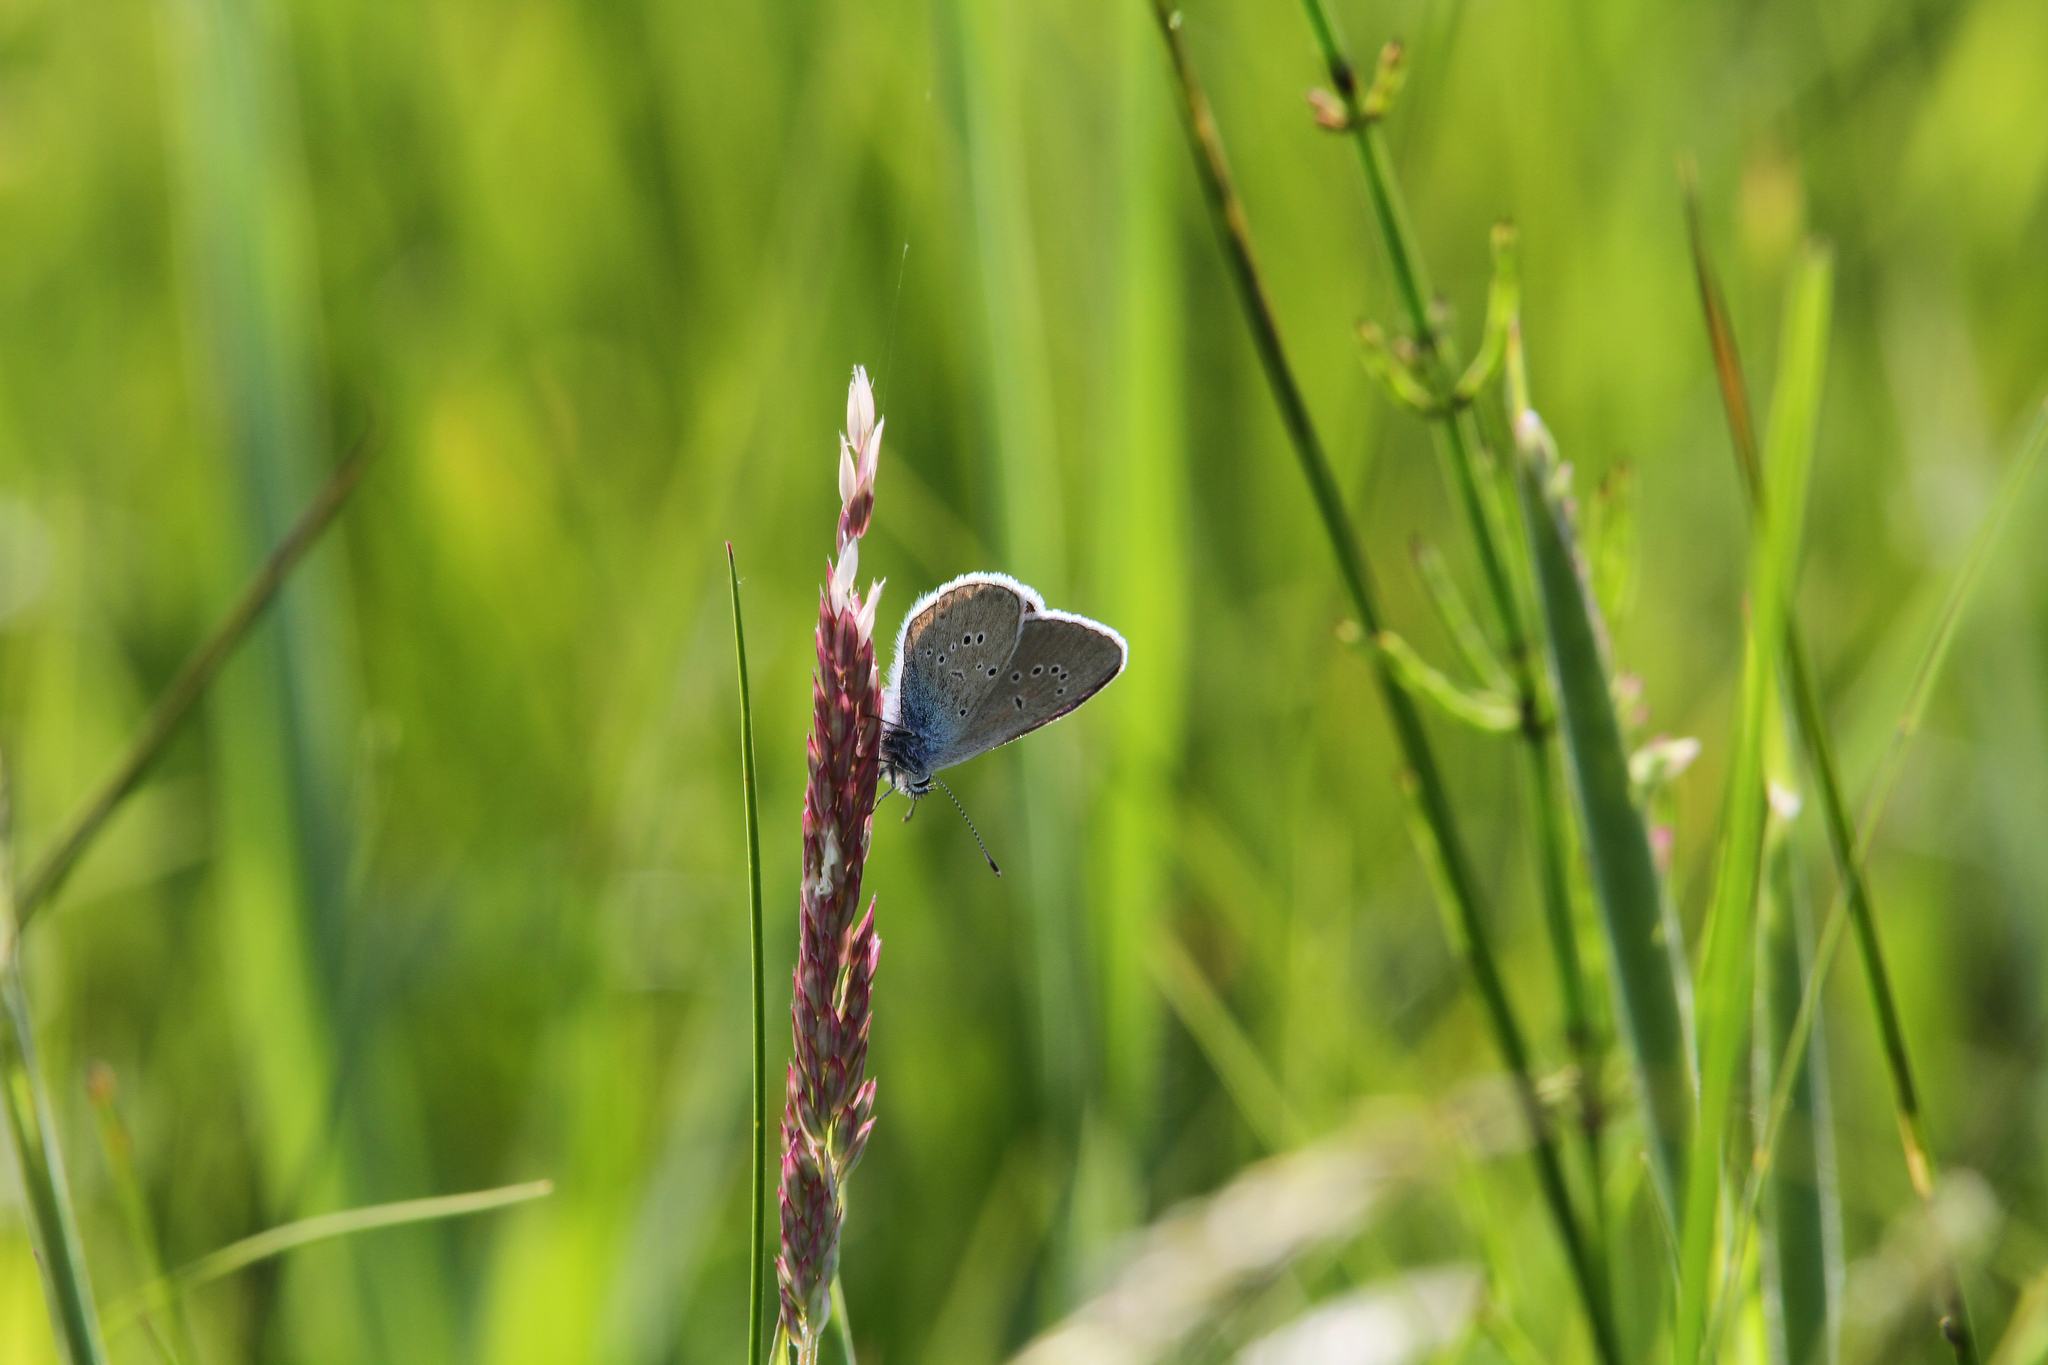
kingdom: Animalia
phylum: Arthropoda
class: Insecta
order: Lepidoptera
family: Lycaenidae
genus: Cyaniris
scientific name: Cyaniris semiargus
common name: Mazarine blue
